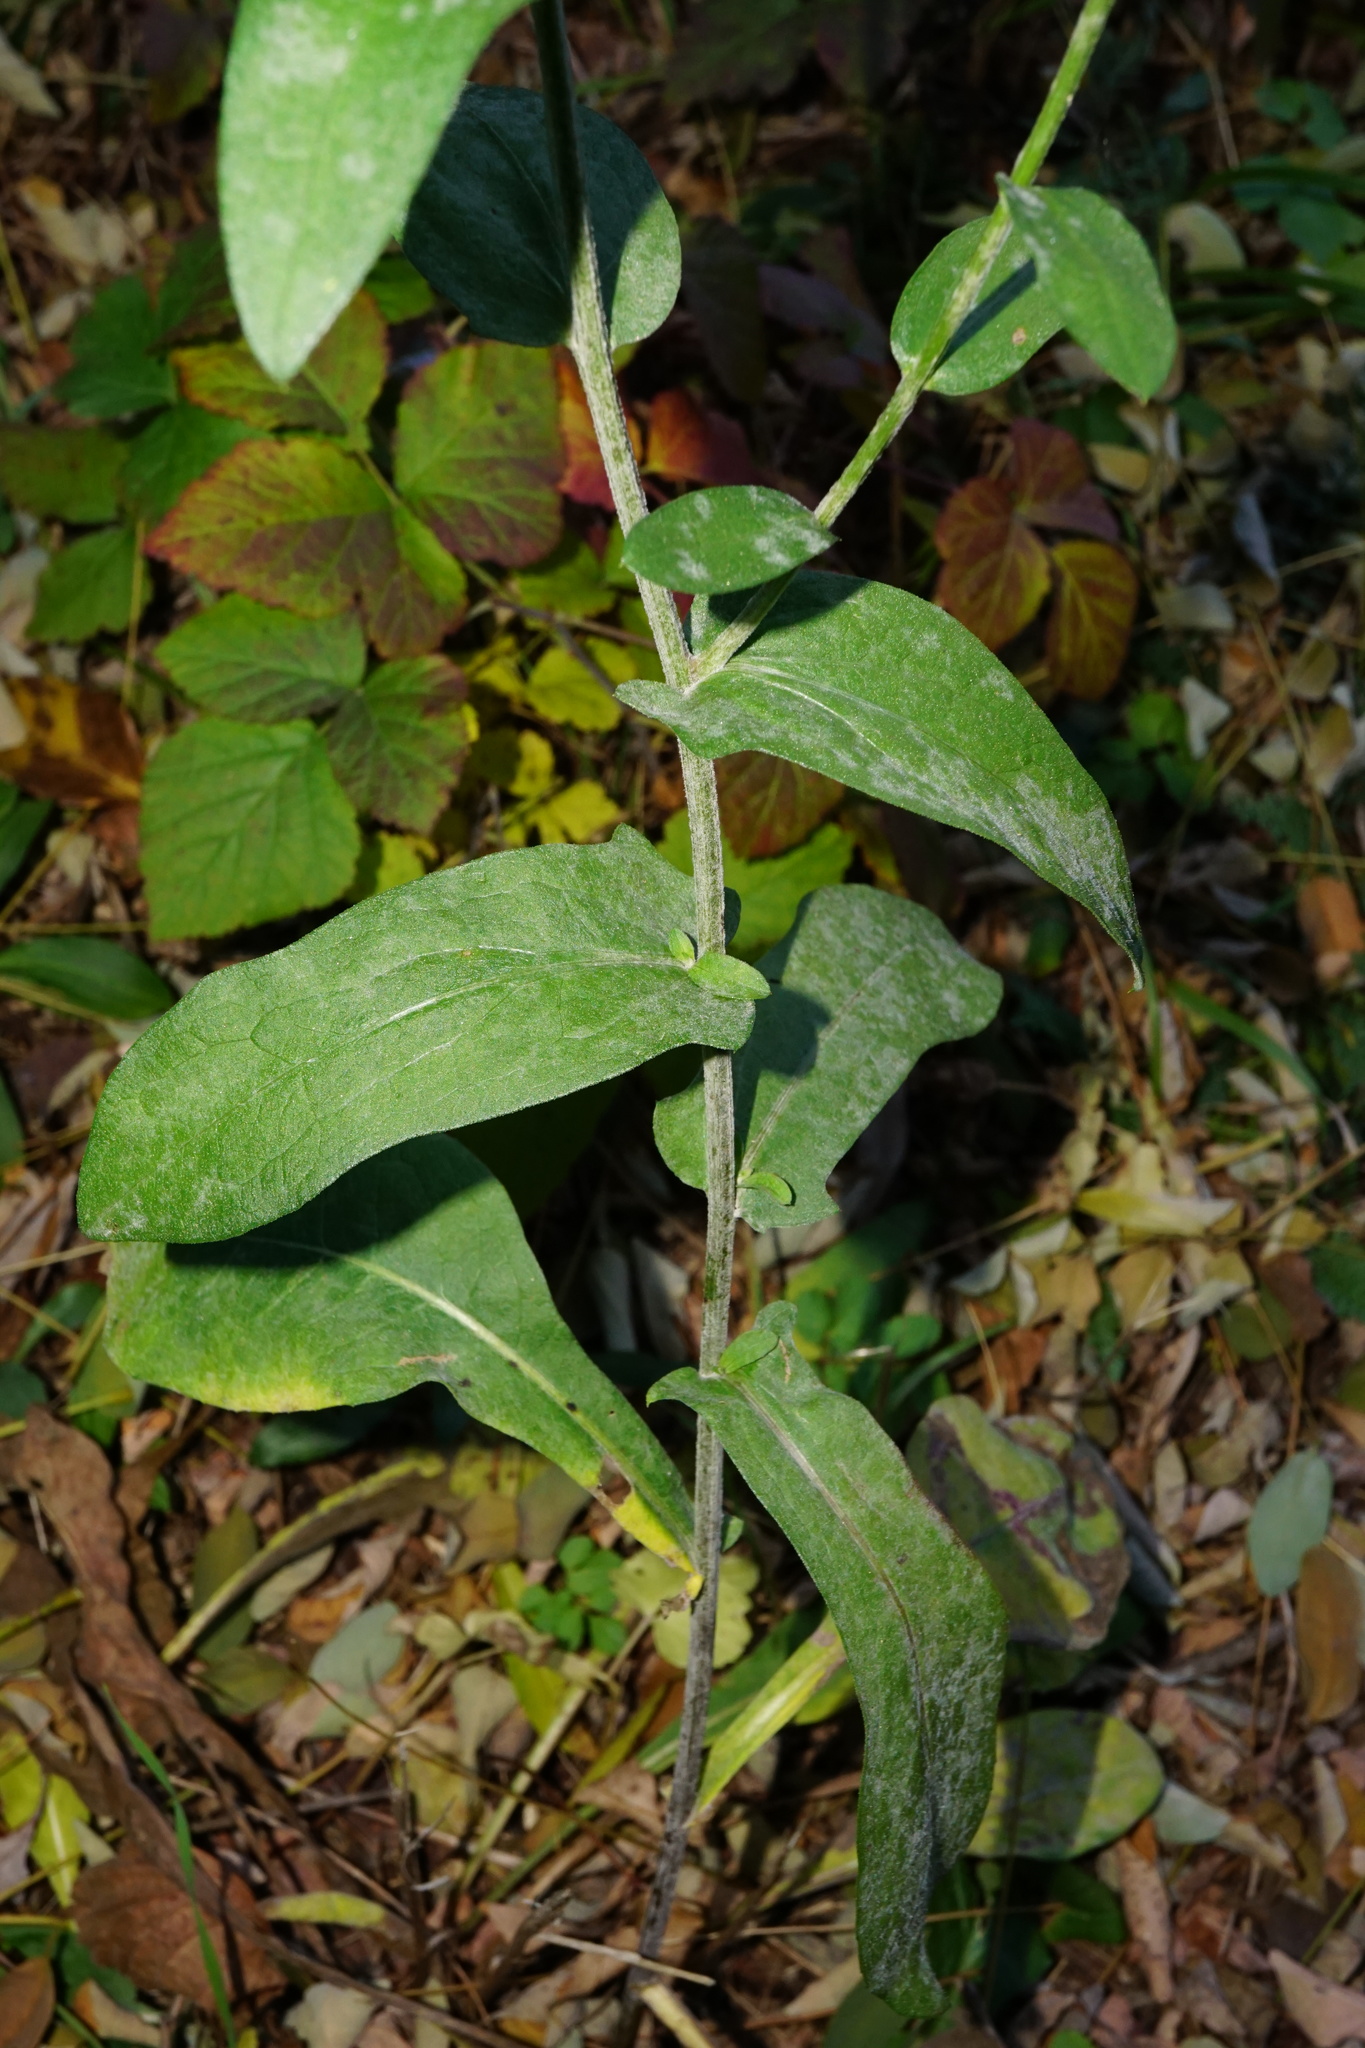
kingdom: Plantae
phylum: Tracheophyta
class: Magnoliopsida
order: Asterales
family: Asteraceae
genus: Centaurea
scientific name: Centaurea jacea
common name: Brown knapweed
